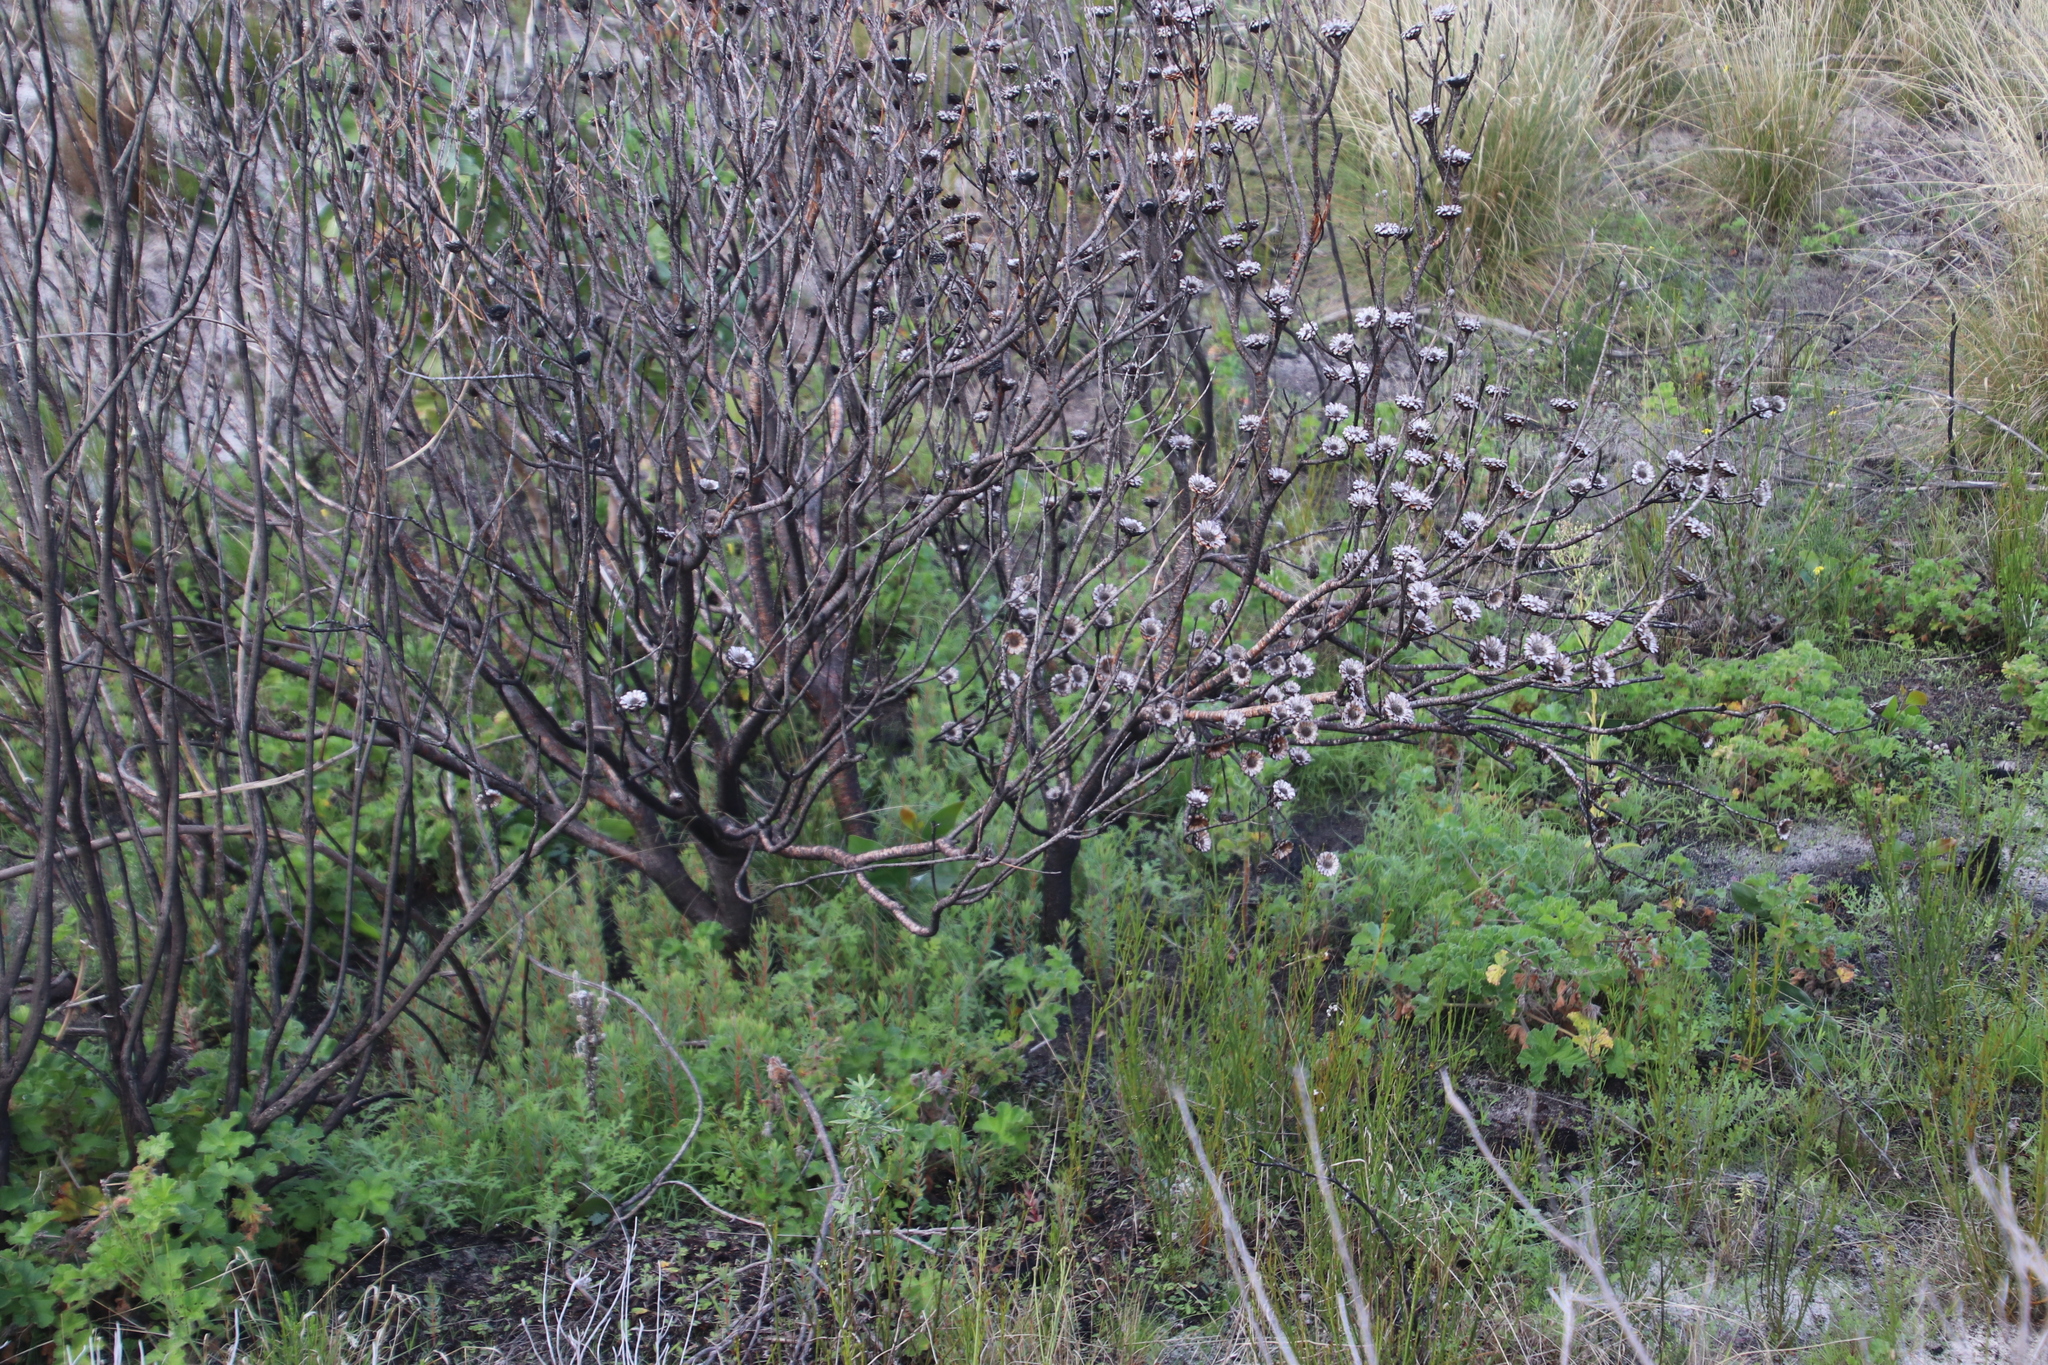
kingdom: Plantae
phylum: Tracheophyta
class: Magnoliopsida
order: Proteales
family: Proteaceae
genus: Protea
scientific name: Protea scolymocephala
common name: Thistle sugarbush
